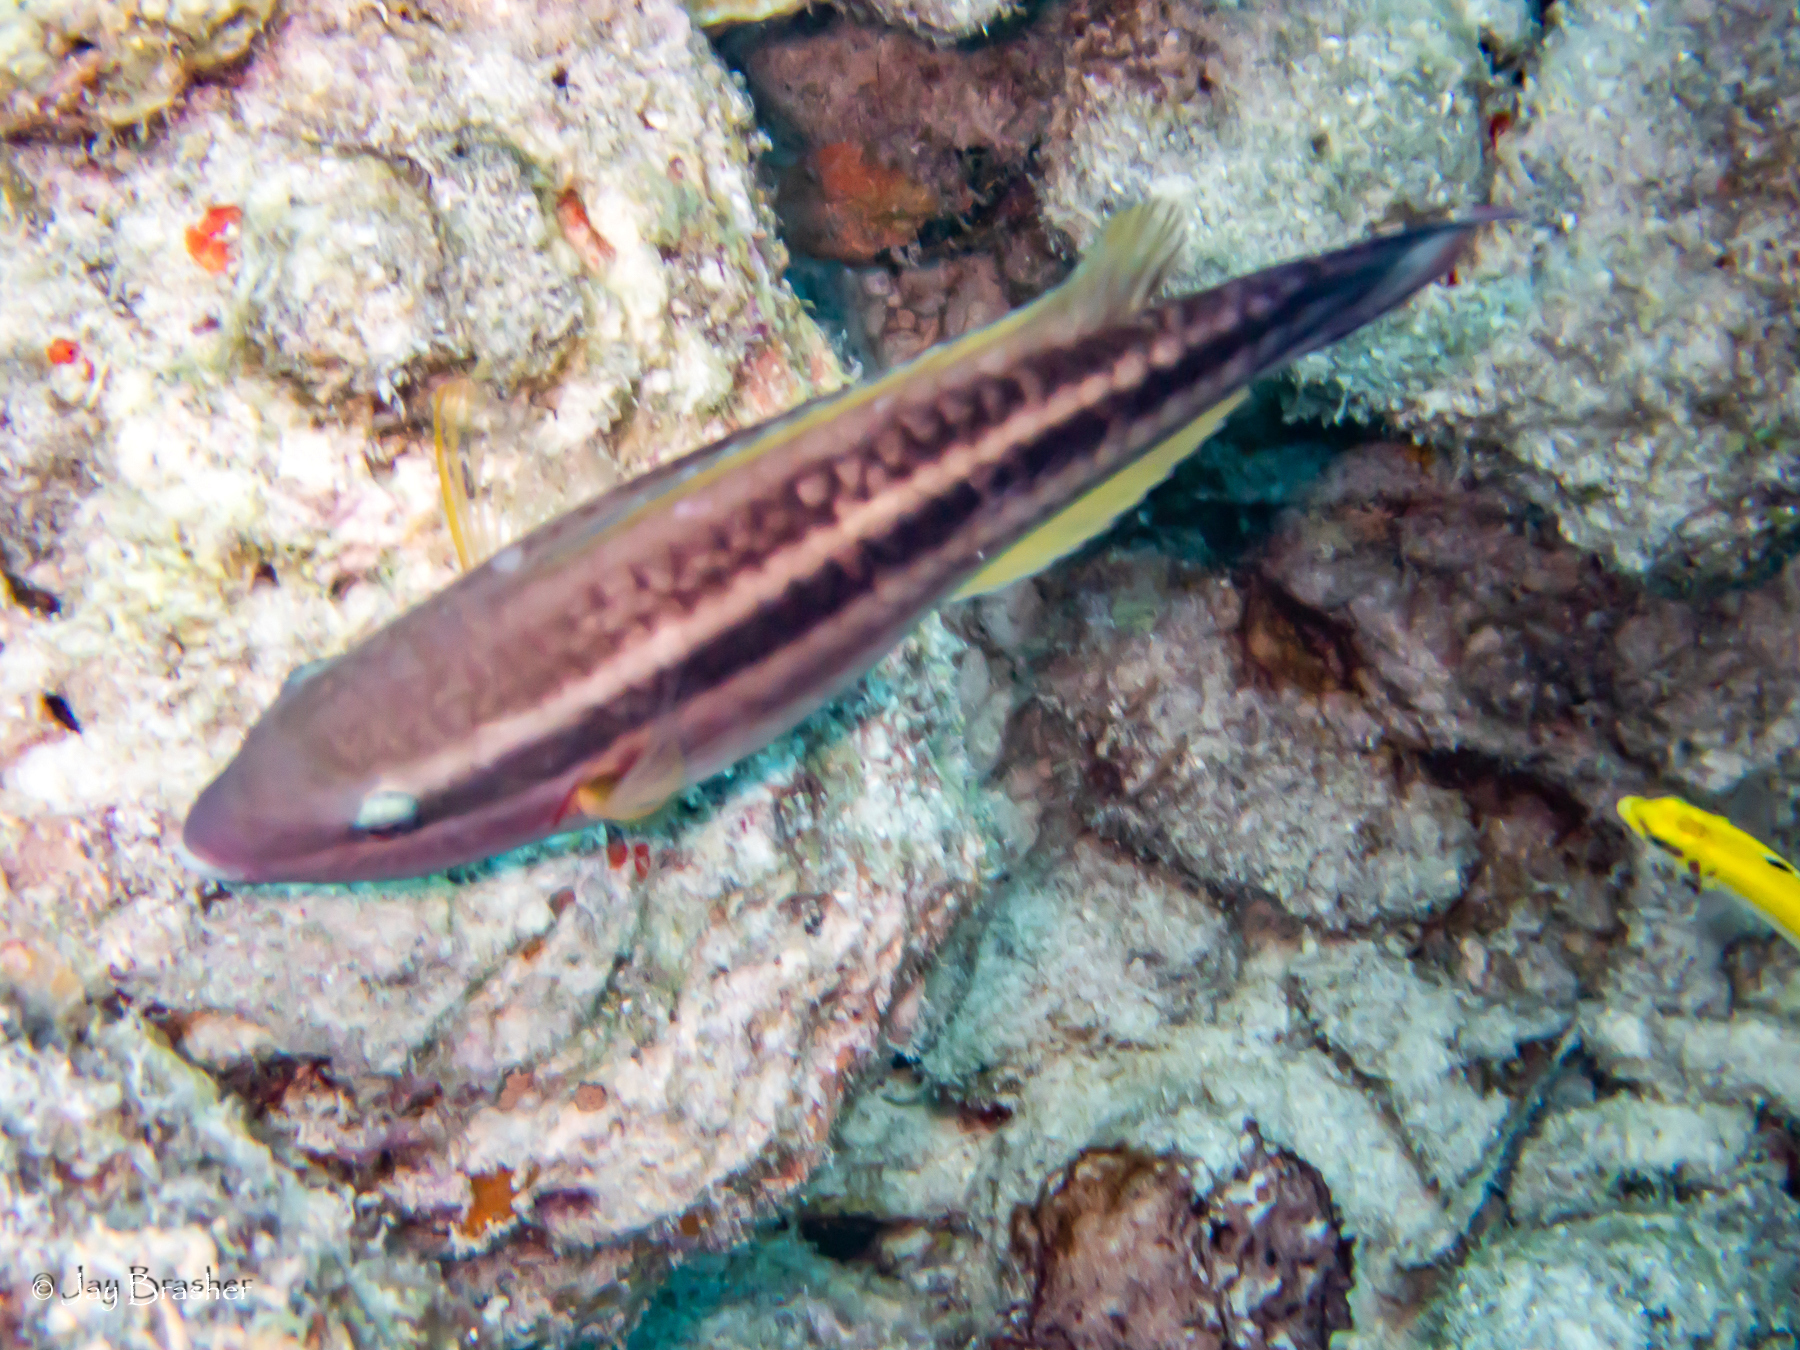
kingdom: Animalia
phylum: Chordata
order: Perciformes
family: Scaridae
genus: Scarus
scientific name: Scarus taeniopterus
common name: Princess parrotfish
